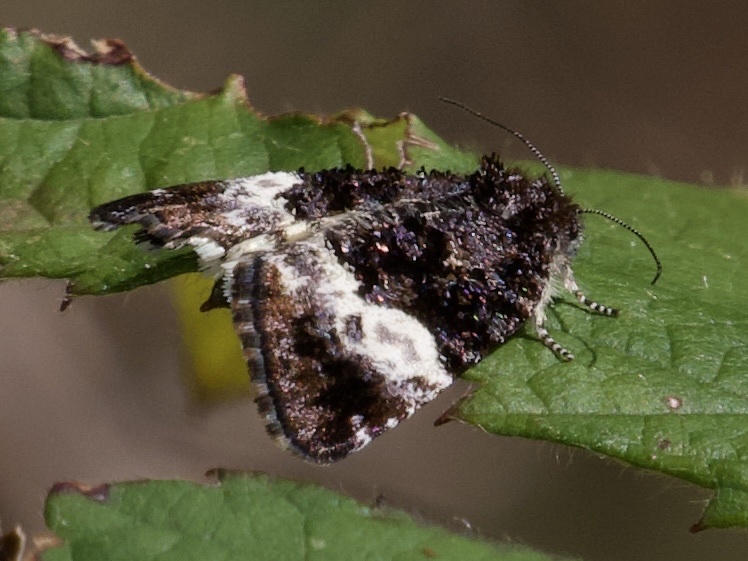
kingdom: Animalia
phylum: Arthropoda
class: Insecta
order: Lepidoptera
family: Noctuidae
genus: Annaphila
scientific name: Annaphila diva
